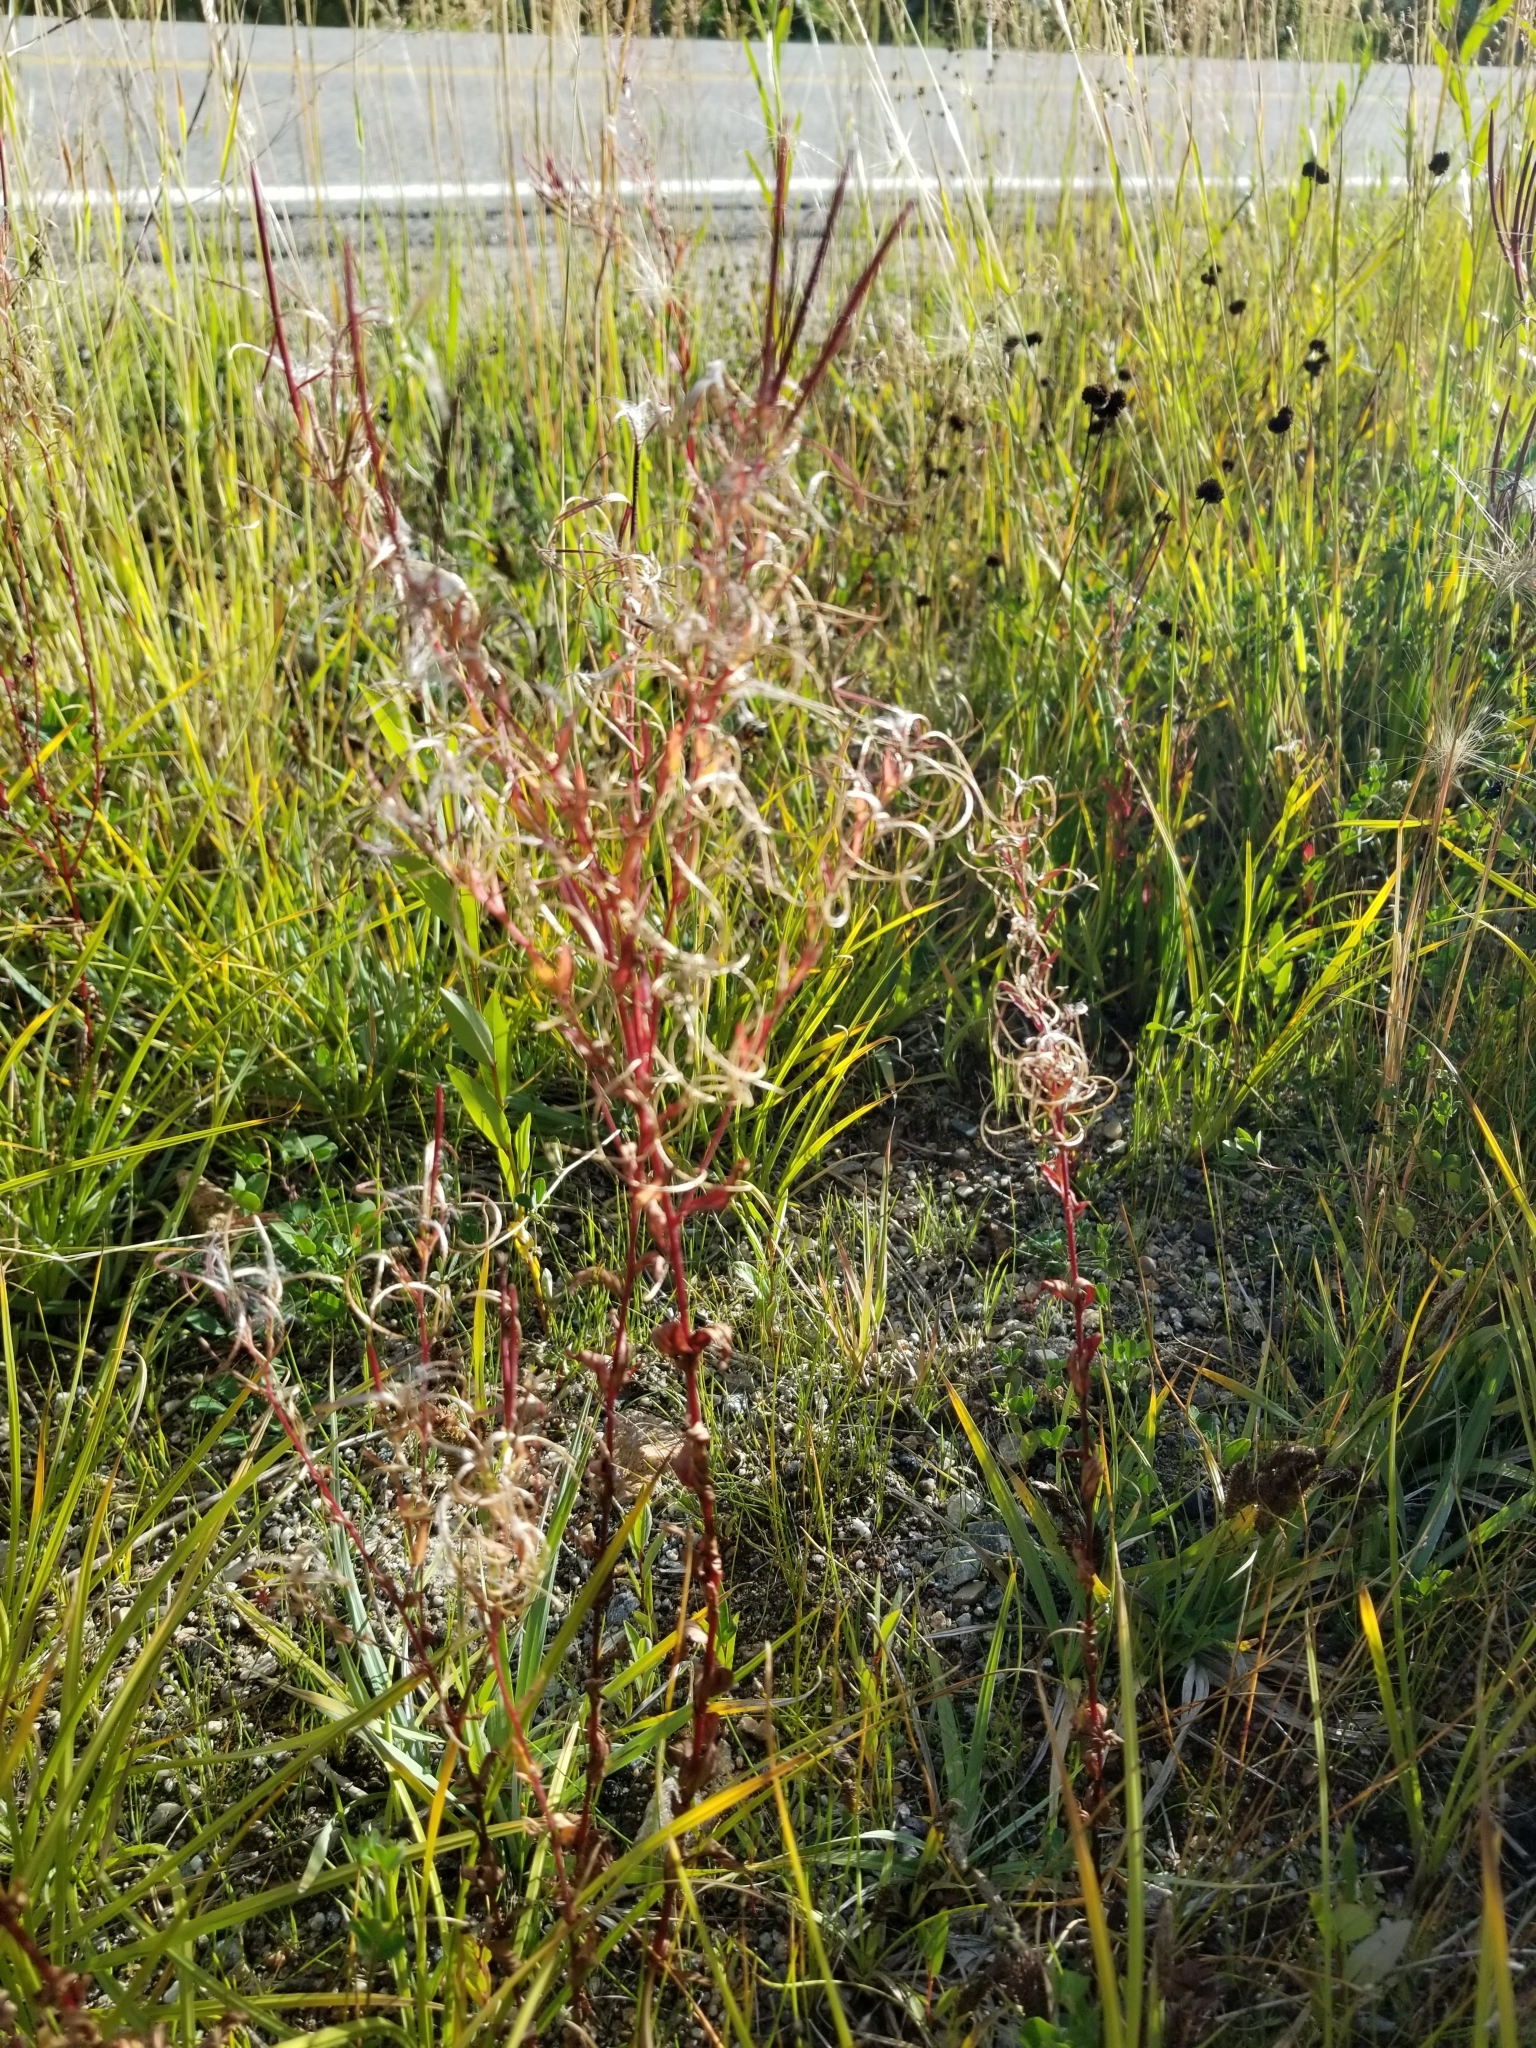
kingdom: Plantae
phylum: Tracheophyta
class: Magnoliopsida
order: Myrtales
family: Onagraceae
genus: Chamaenerion
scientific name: Chamaenerion angustifolium
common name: Fireweed
